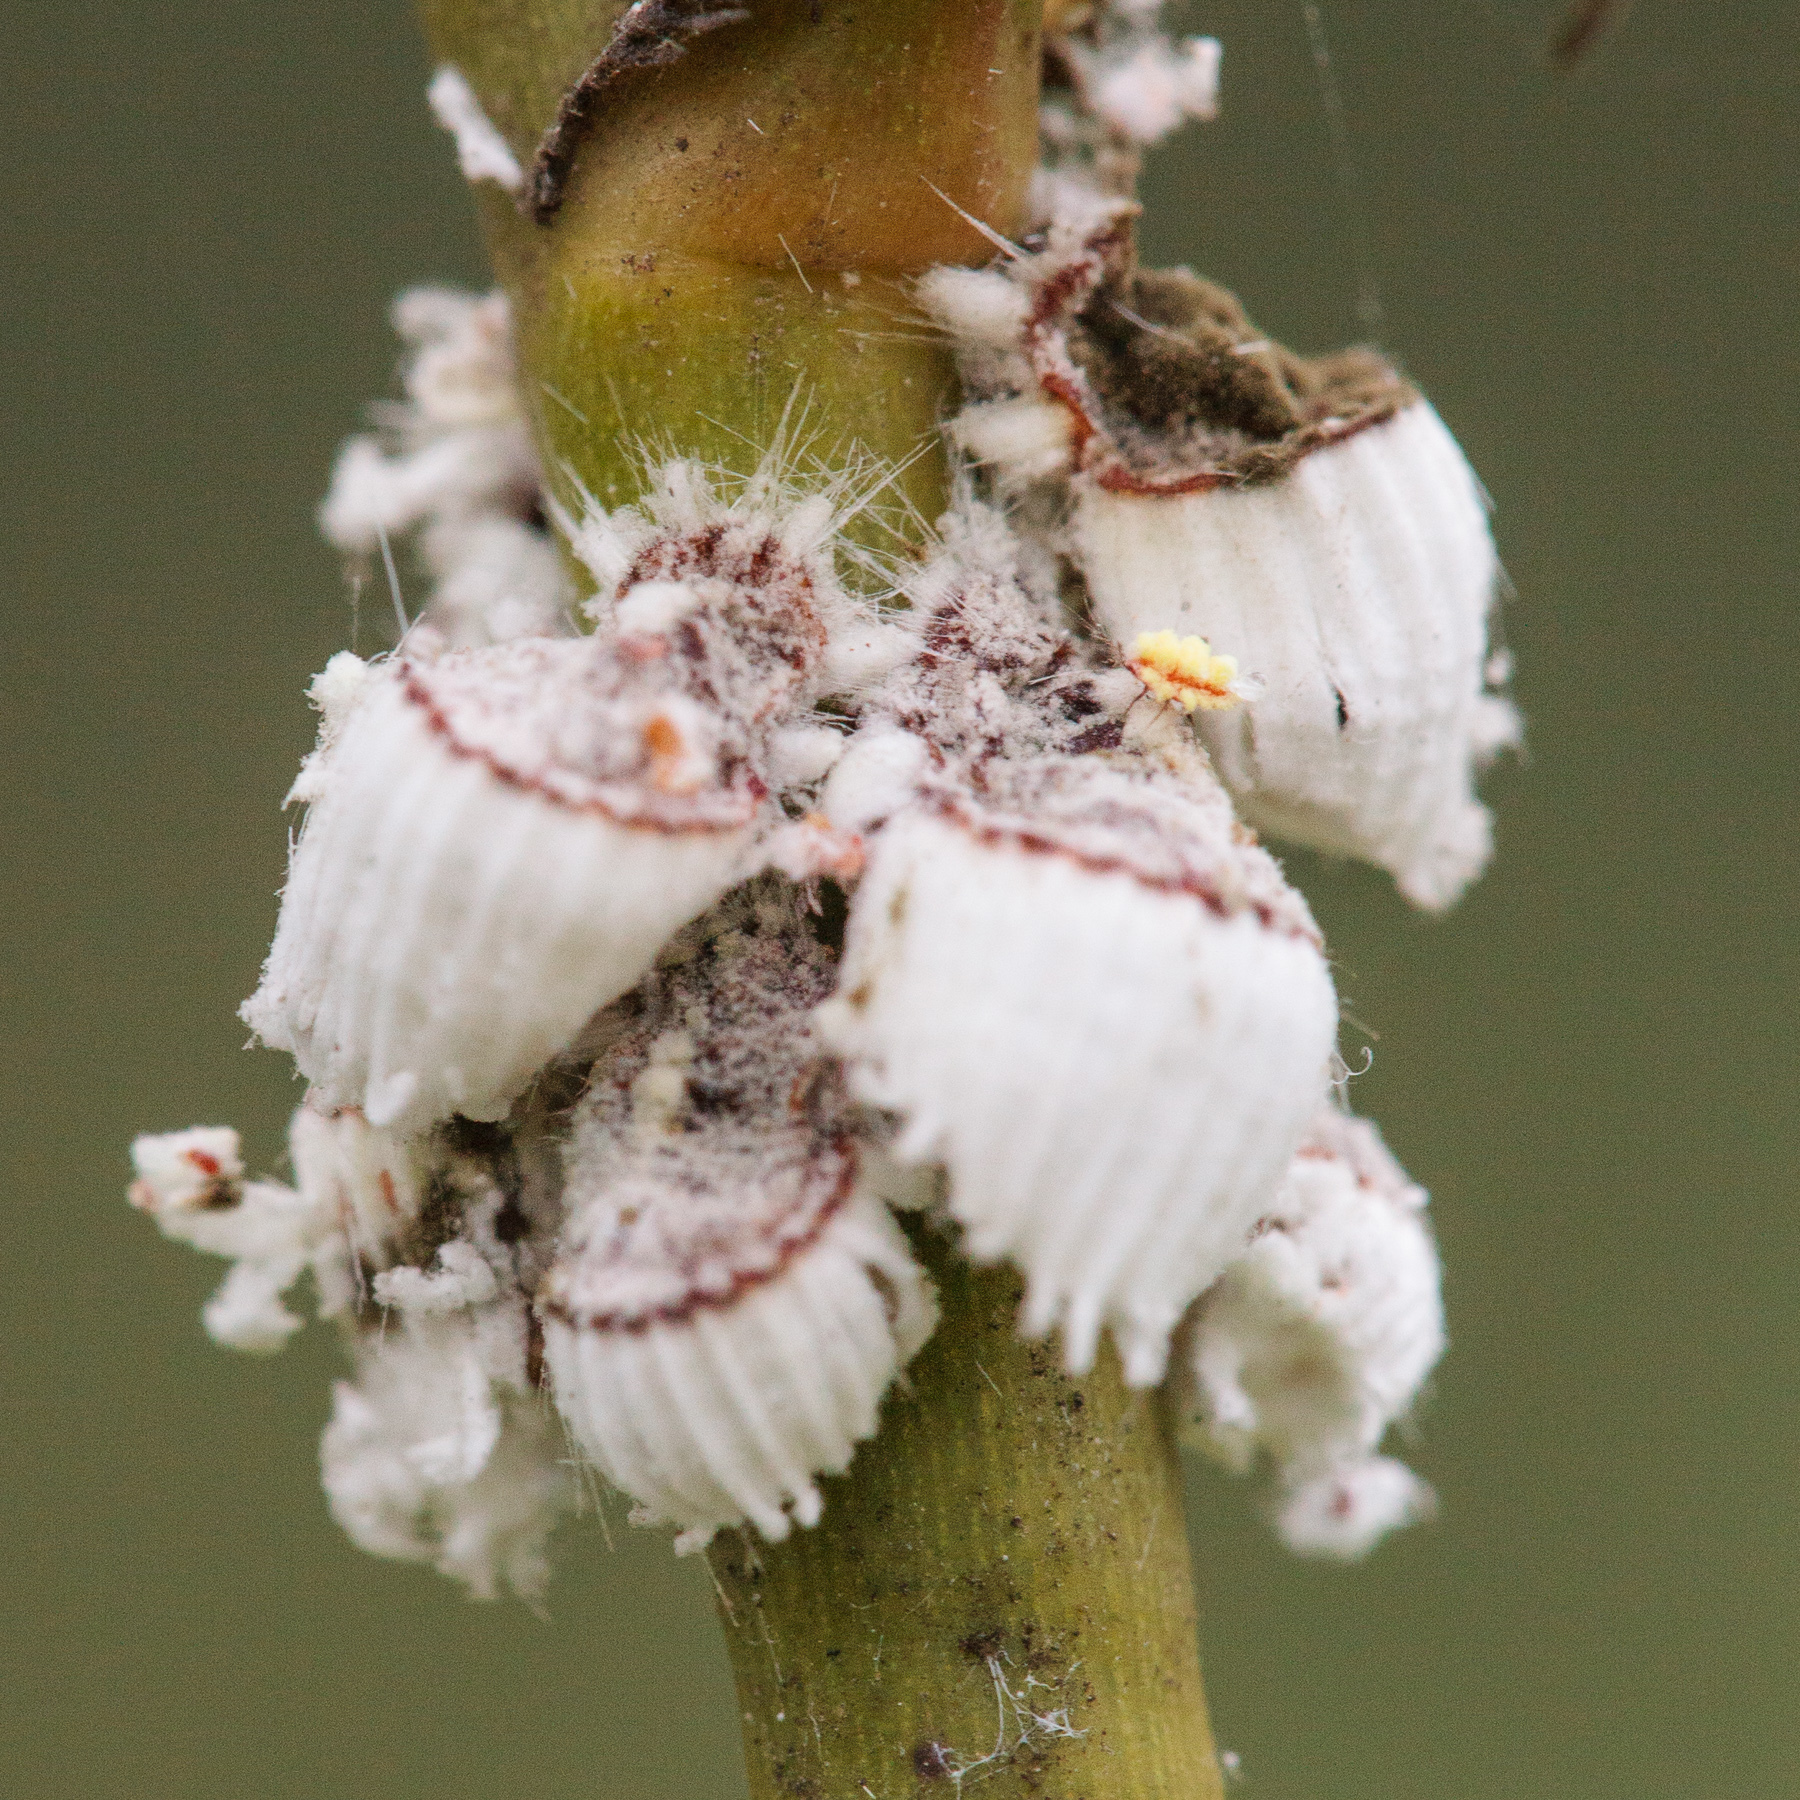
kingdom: Animalia
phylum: Arthropoda
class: Insecta
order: Hemiptera
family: Margarodidae
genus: Icerya
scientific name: Icerya purchasi
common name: Cottony cushion scale
